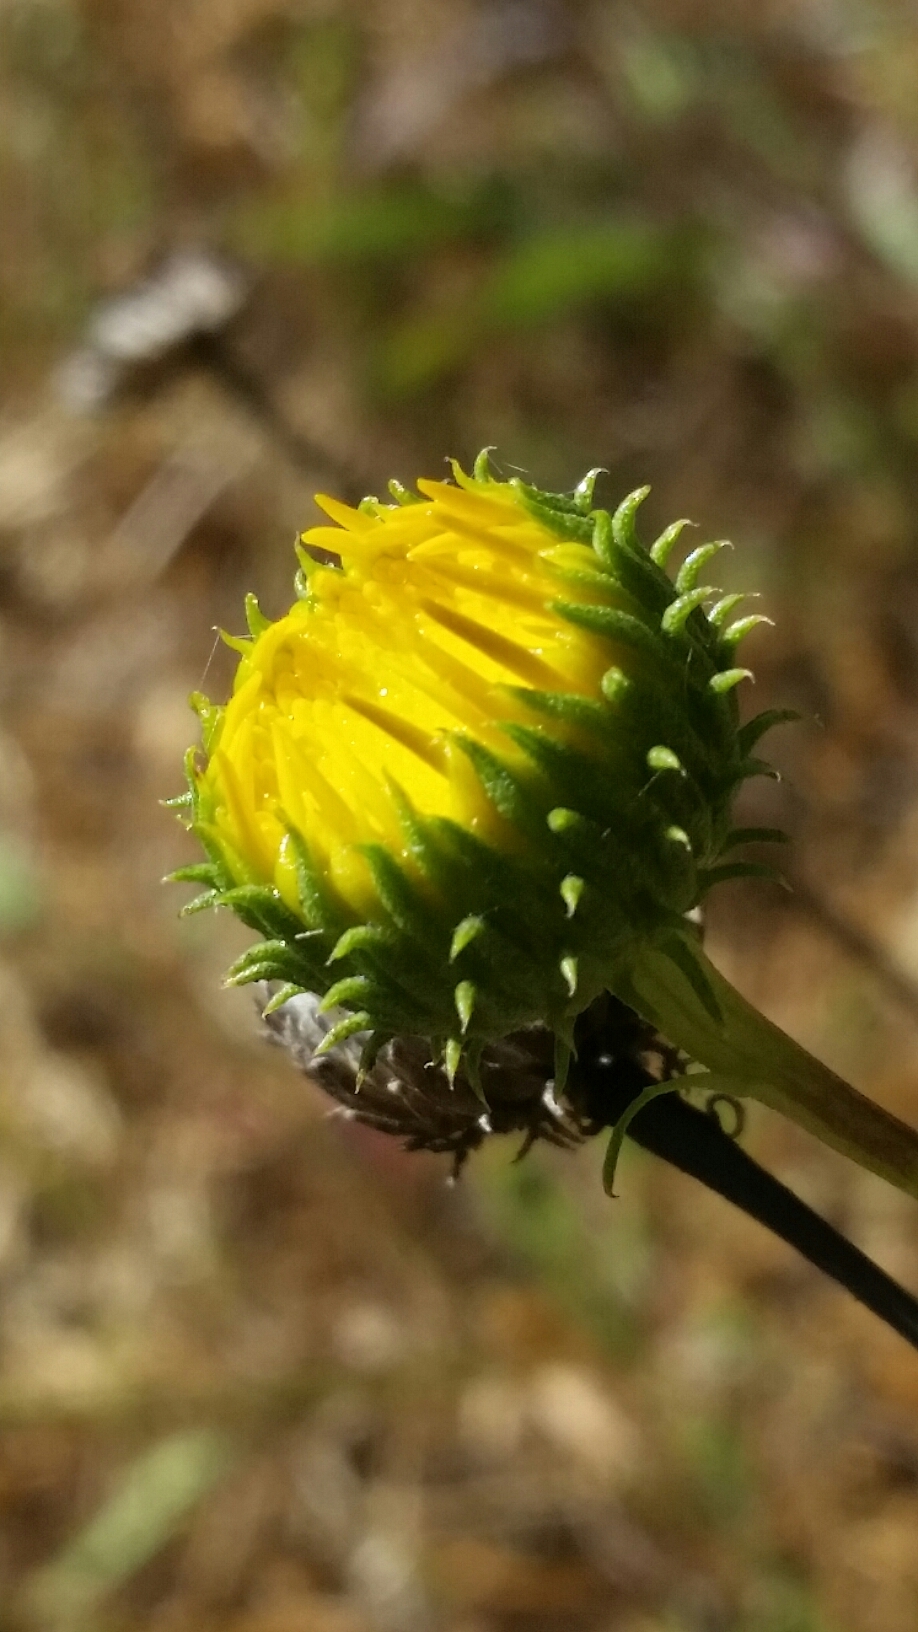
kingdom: Plantae
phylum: Tracheophyta
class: Magnoliopsida
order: Asterales
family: Asteraceae
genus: Grindelia
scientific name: Grindelia hirsutula
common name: Hairy gumweed
